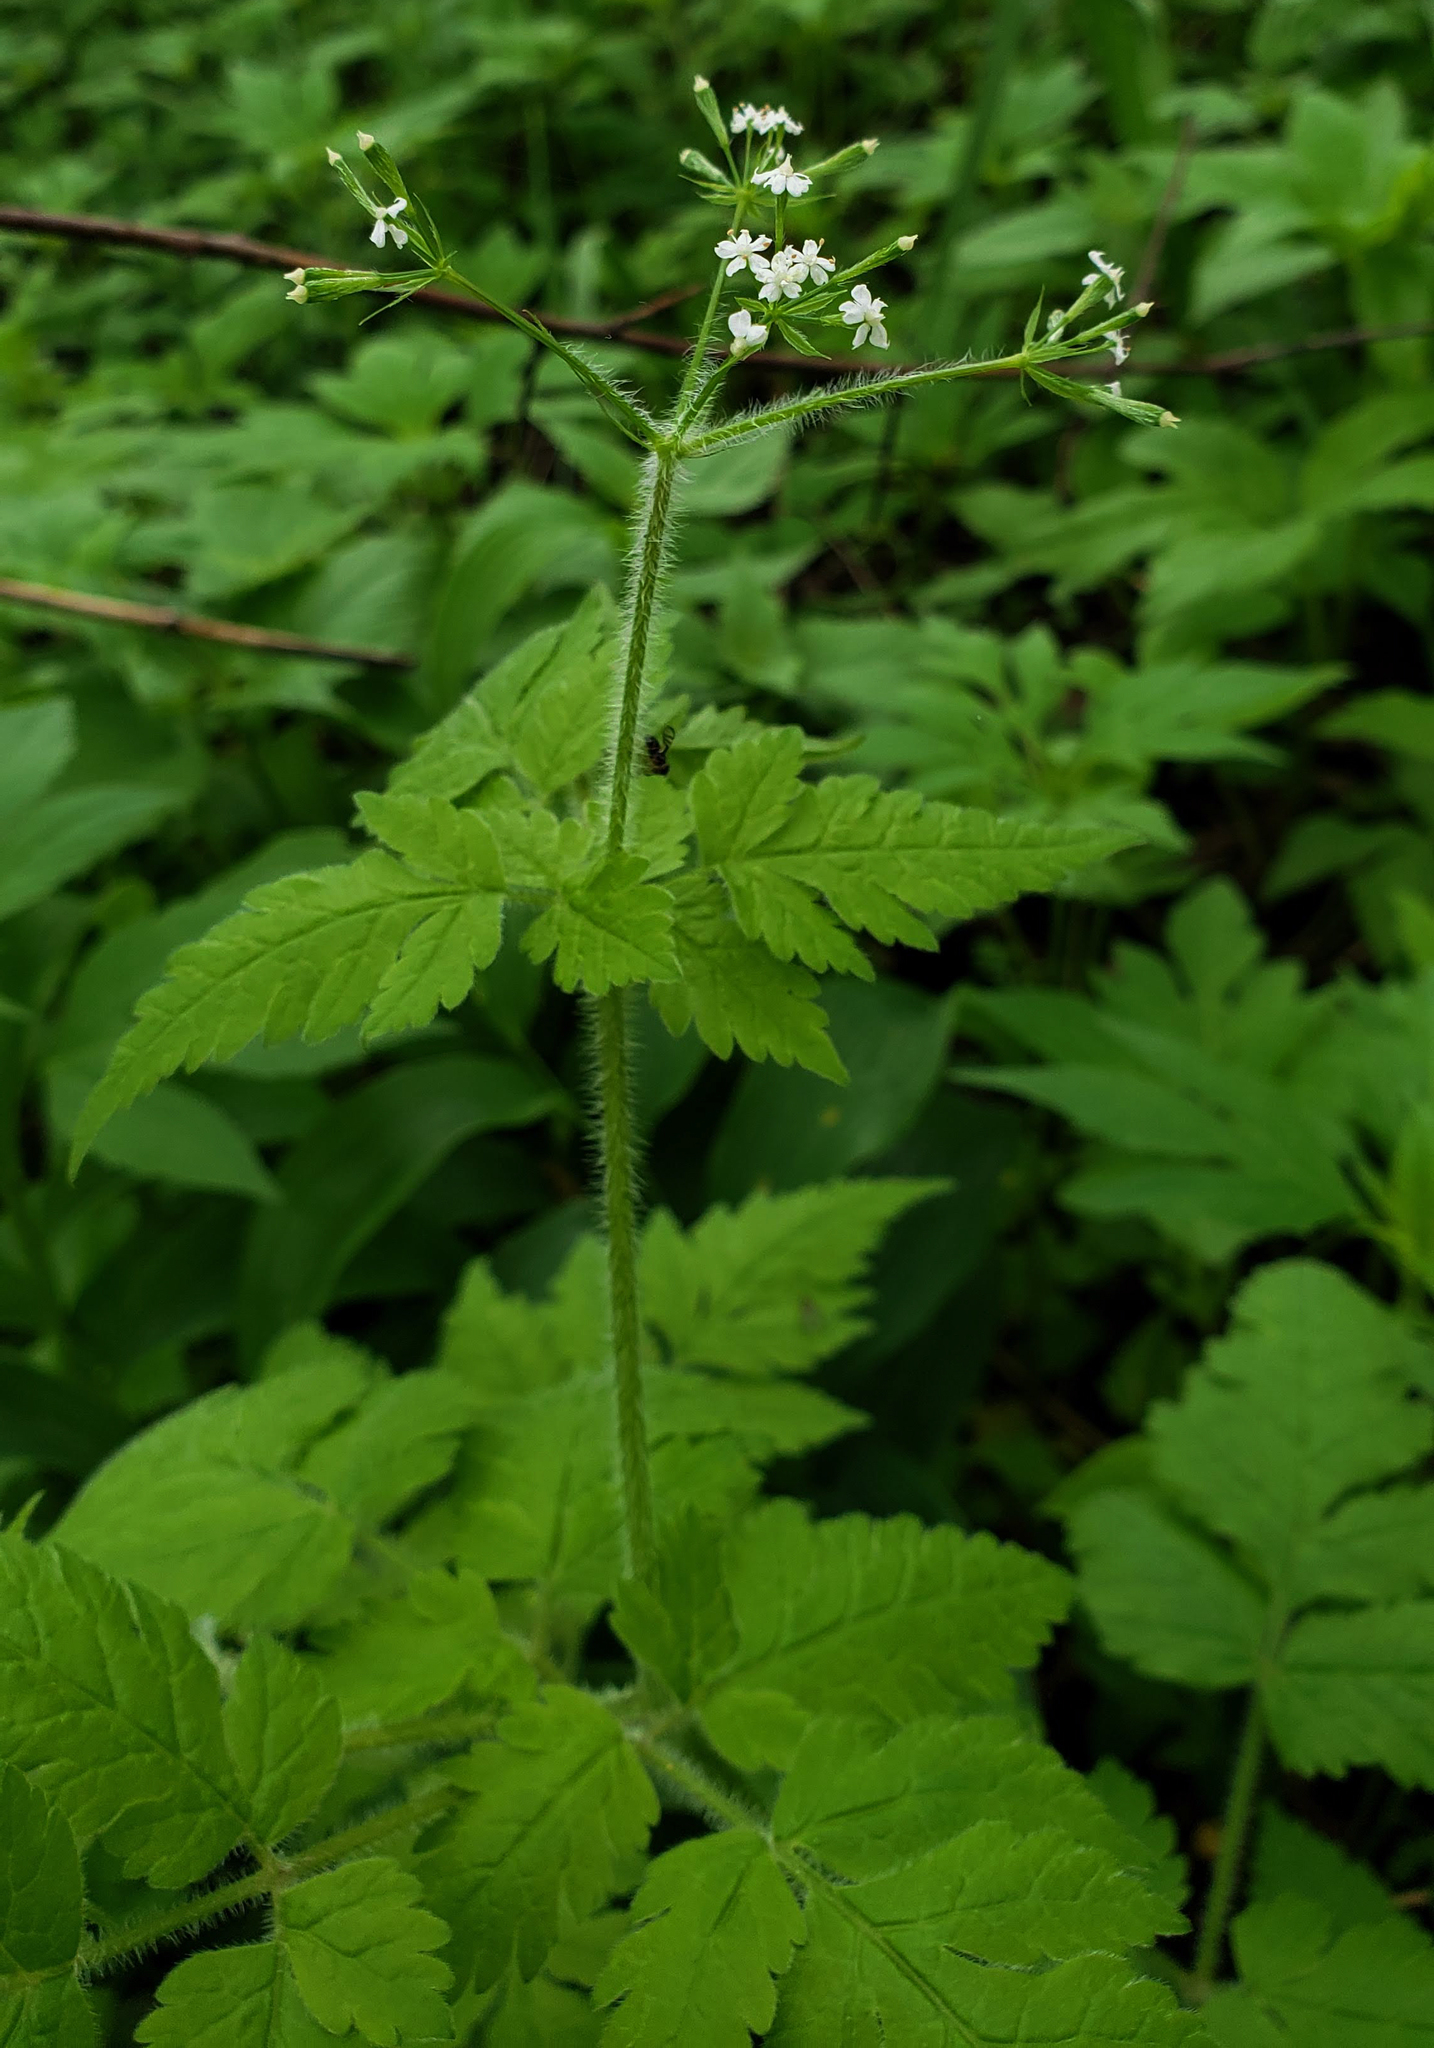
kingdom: Plantae
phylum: Tracheophyta
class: Magnoliopsida
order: Apiales
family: Apiaceae
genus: Osmorhiza
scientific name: Osmorhiza claytonii
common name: Hairy sweet cicely
